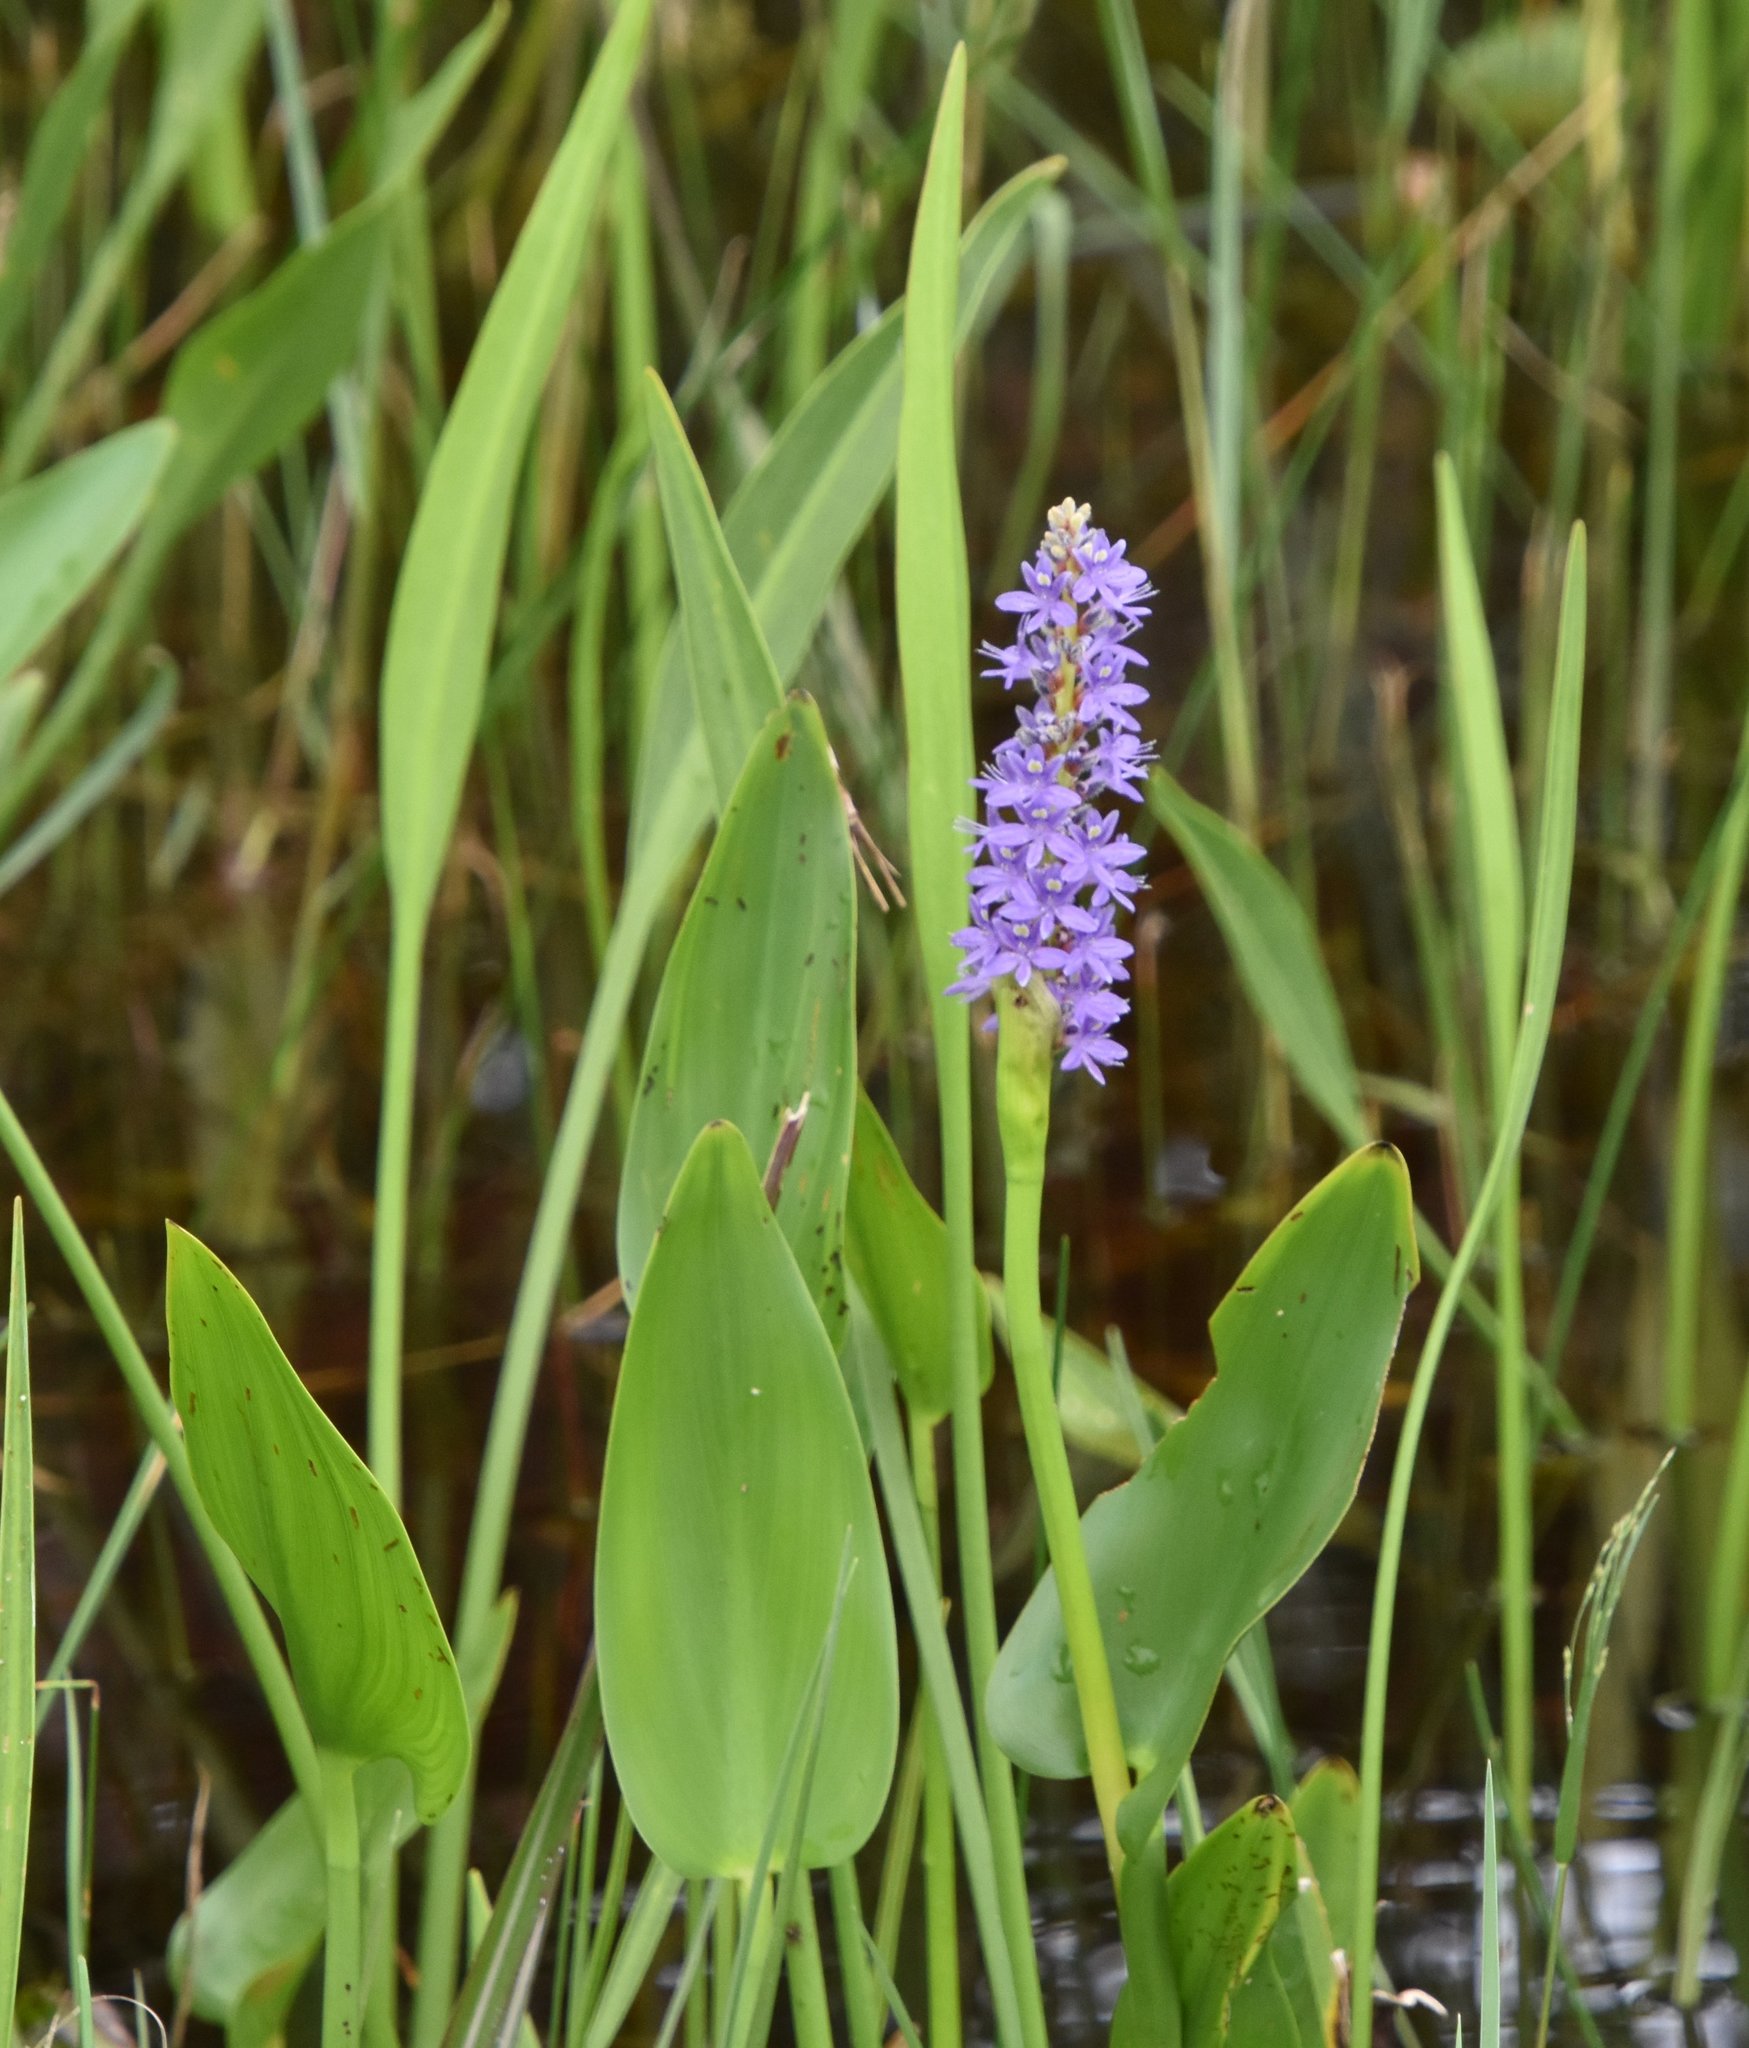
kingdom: Plantae
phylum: Tracheophyta
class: Liliopsida
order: Commelinales
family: Pontederiaceae
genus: Pontederia
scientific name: Pontederia cordata
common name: Pickerelweed
